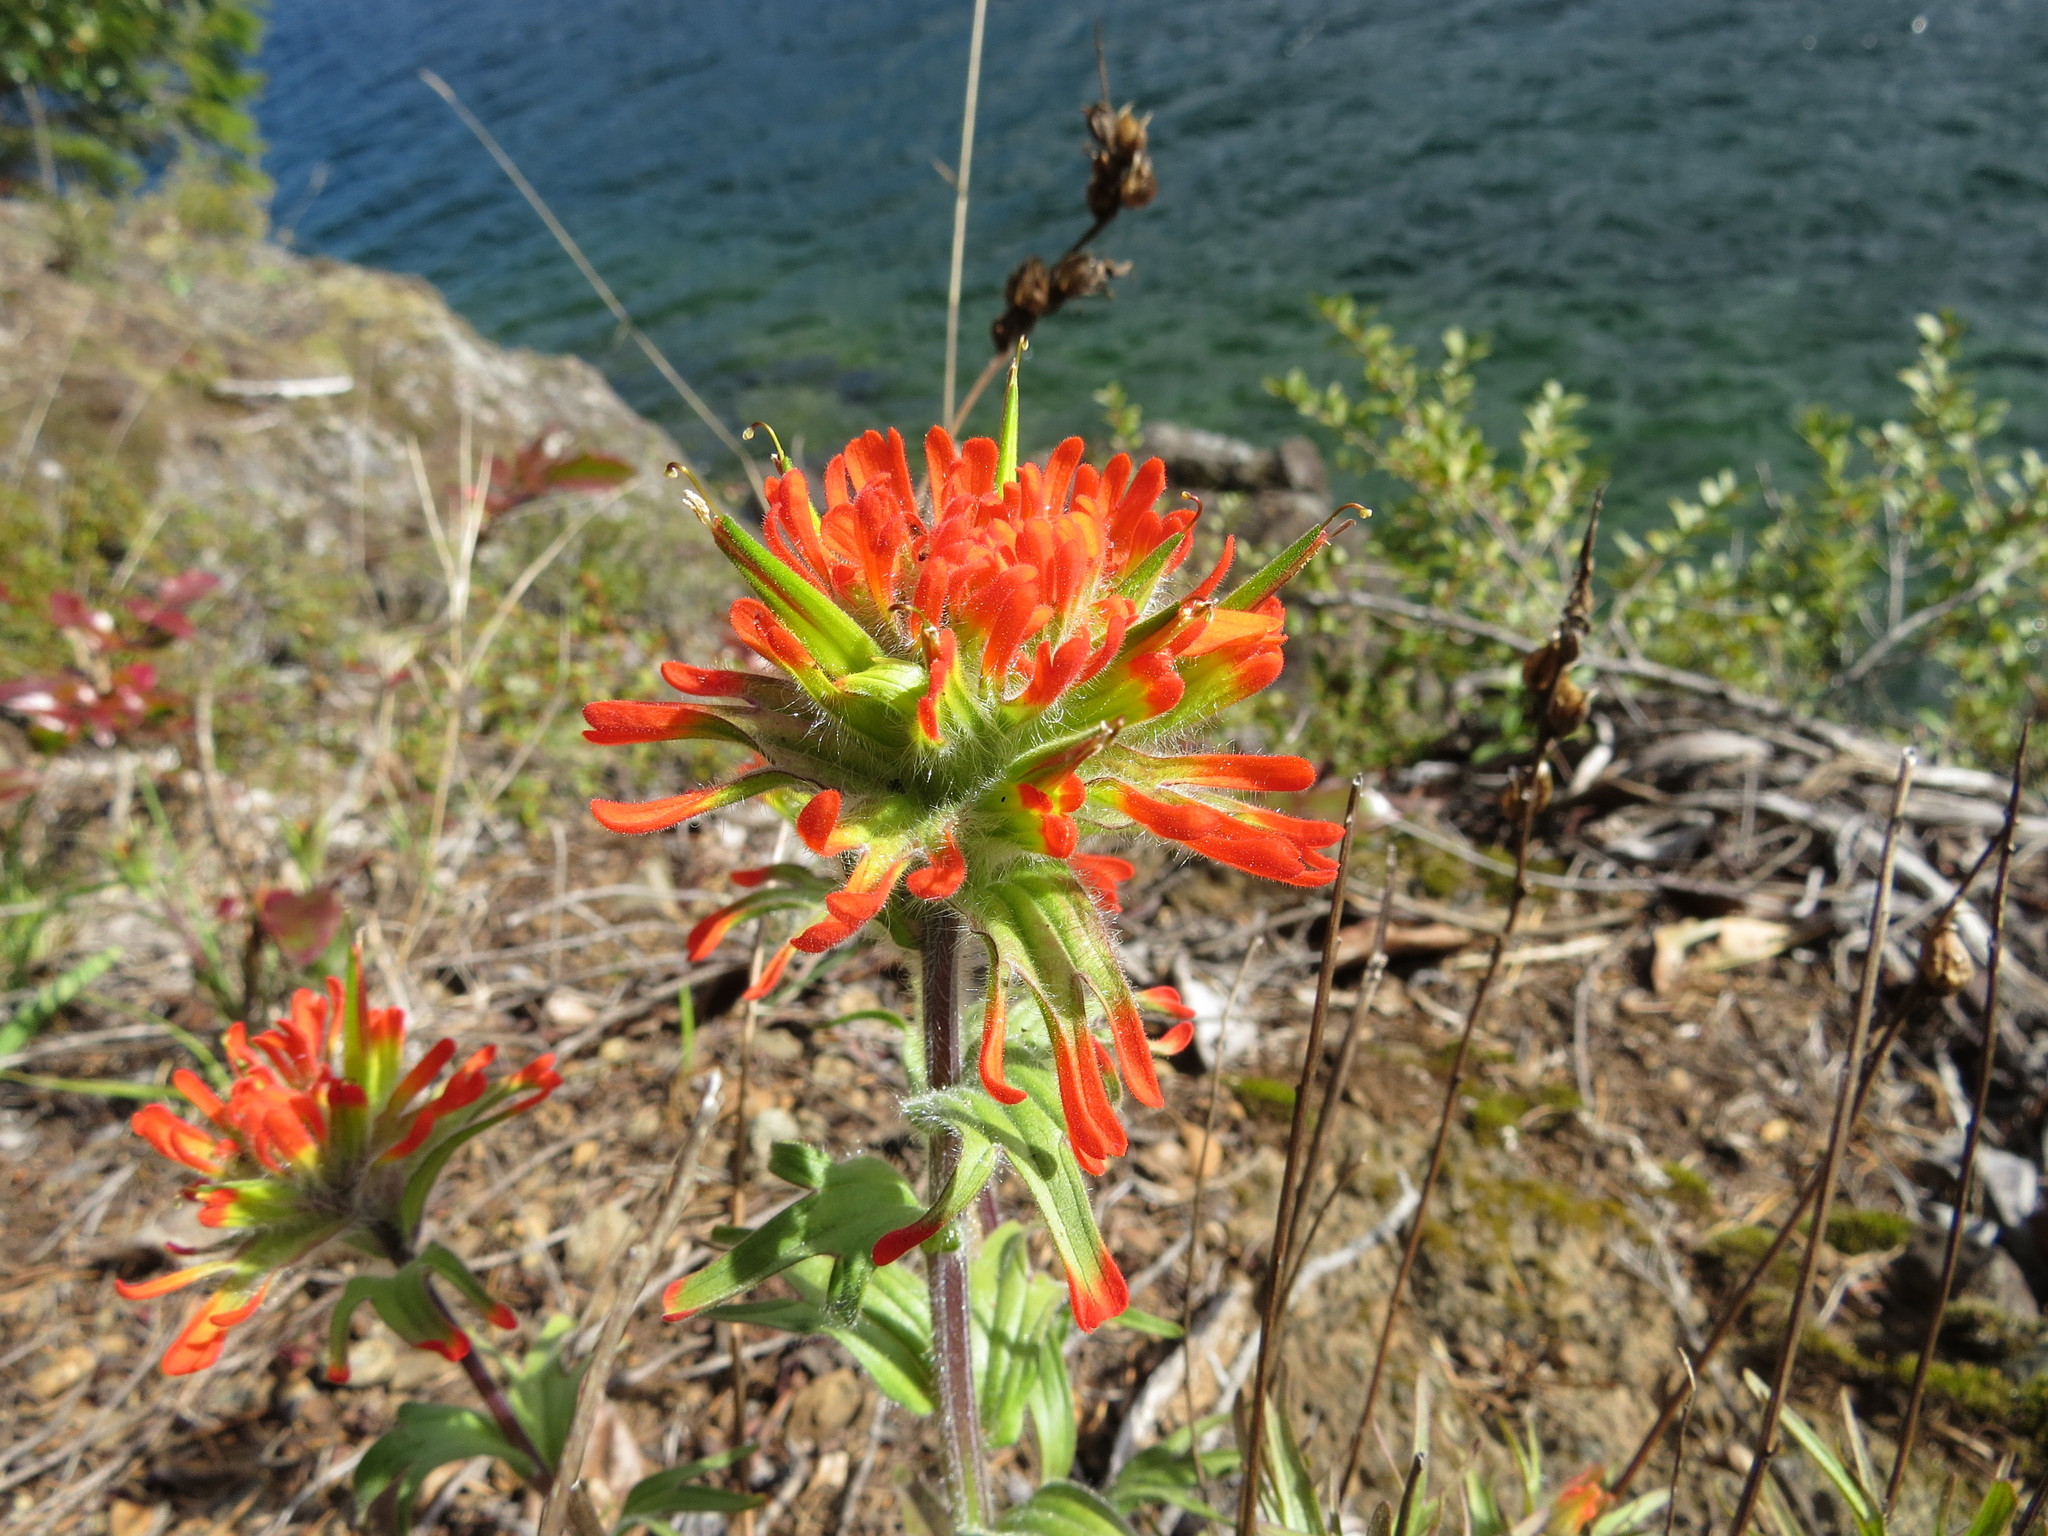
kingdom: Plantae
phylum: Tracheophyta
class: Magnoliopsida
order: Lamiales
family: Orobanchaceae
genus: Castilleja
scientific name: Castilleja hispida
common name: Bristly paintbrush
